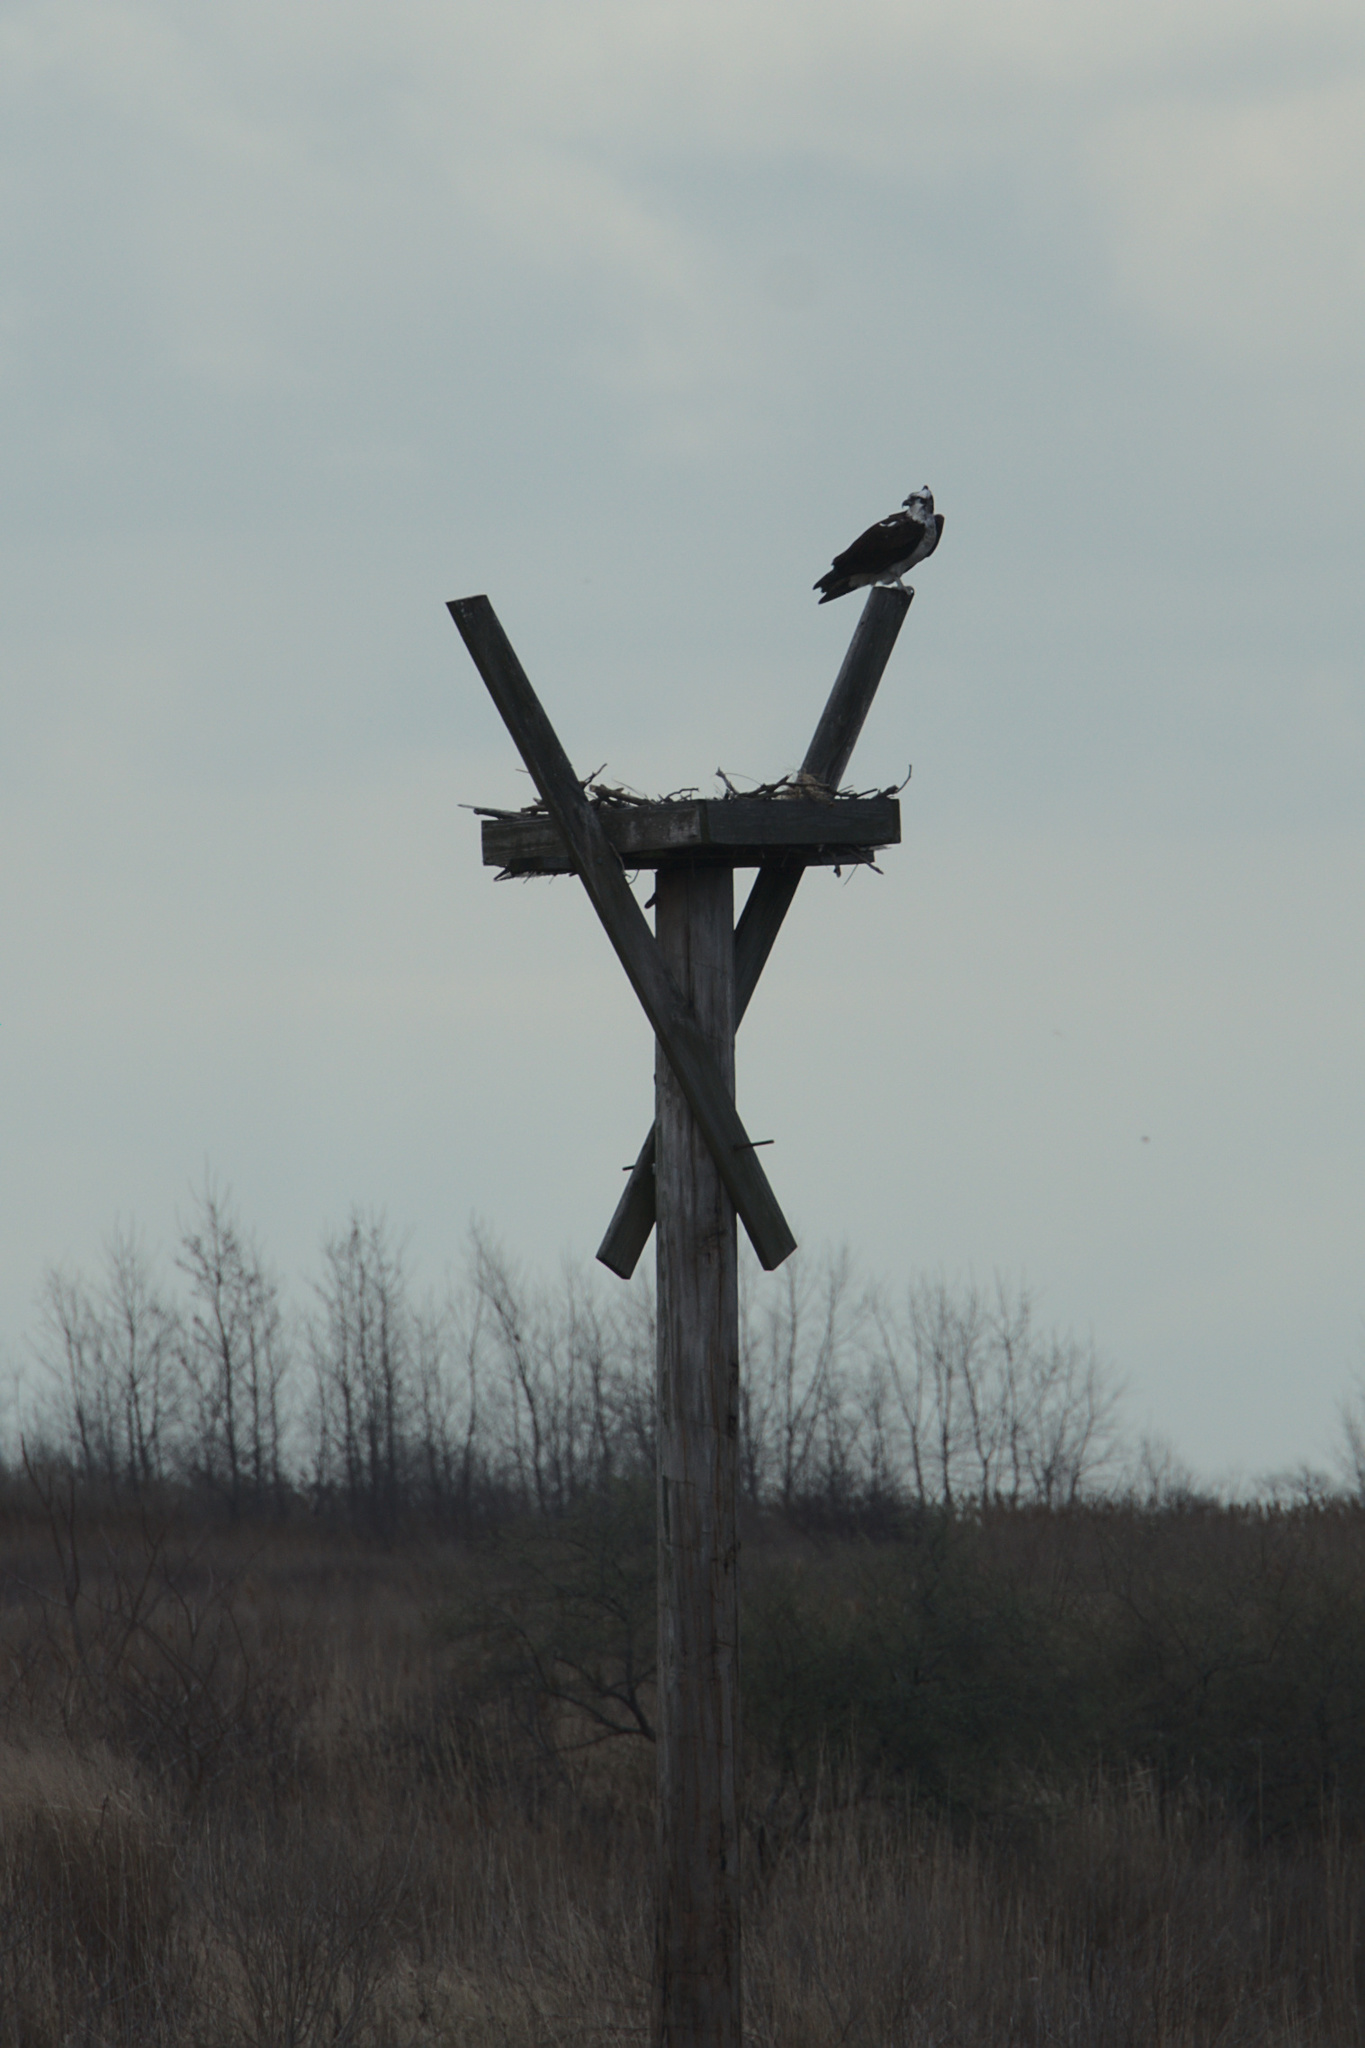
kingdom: Animalia
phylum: Chordata
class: Aves
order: Accipitriformes
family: Pandionidae
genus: Pandion
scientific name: Pandion haliaetus
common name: Osprey
